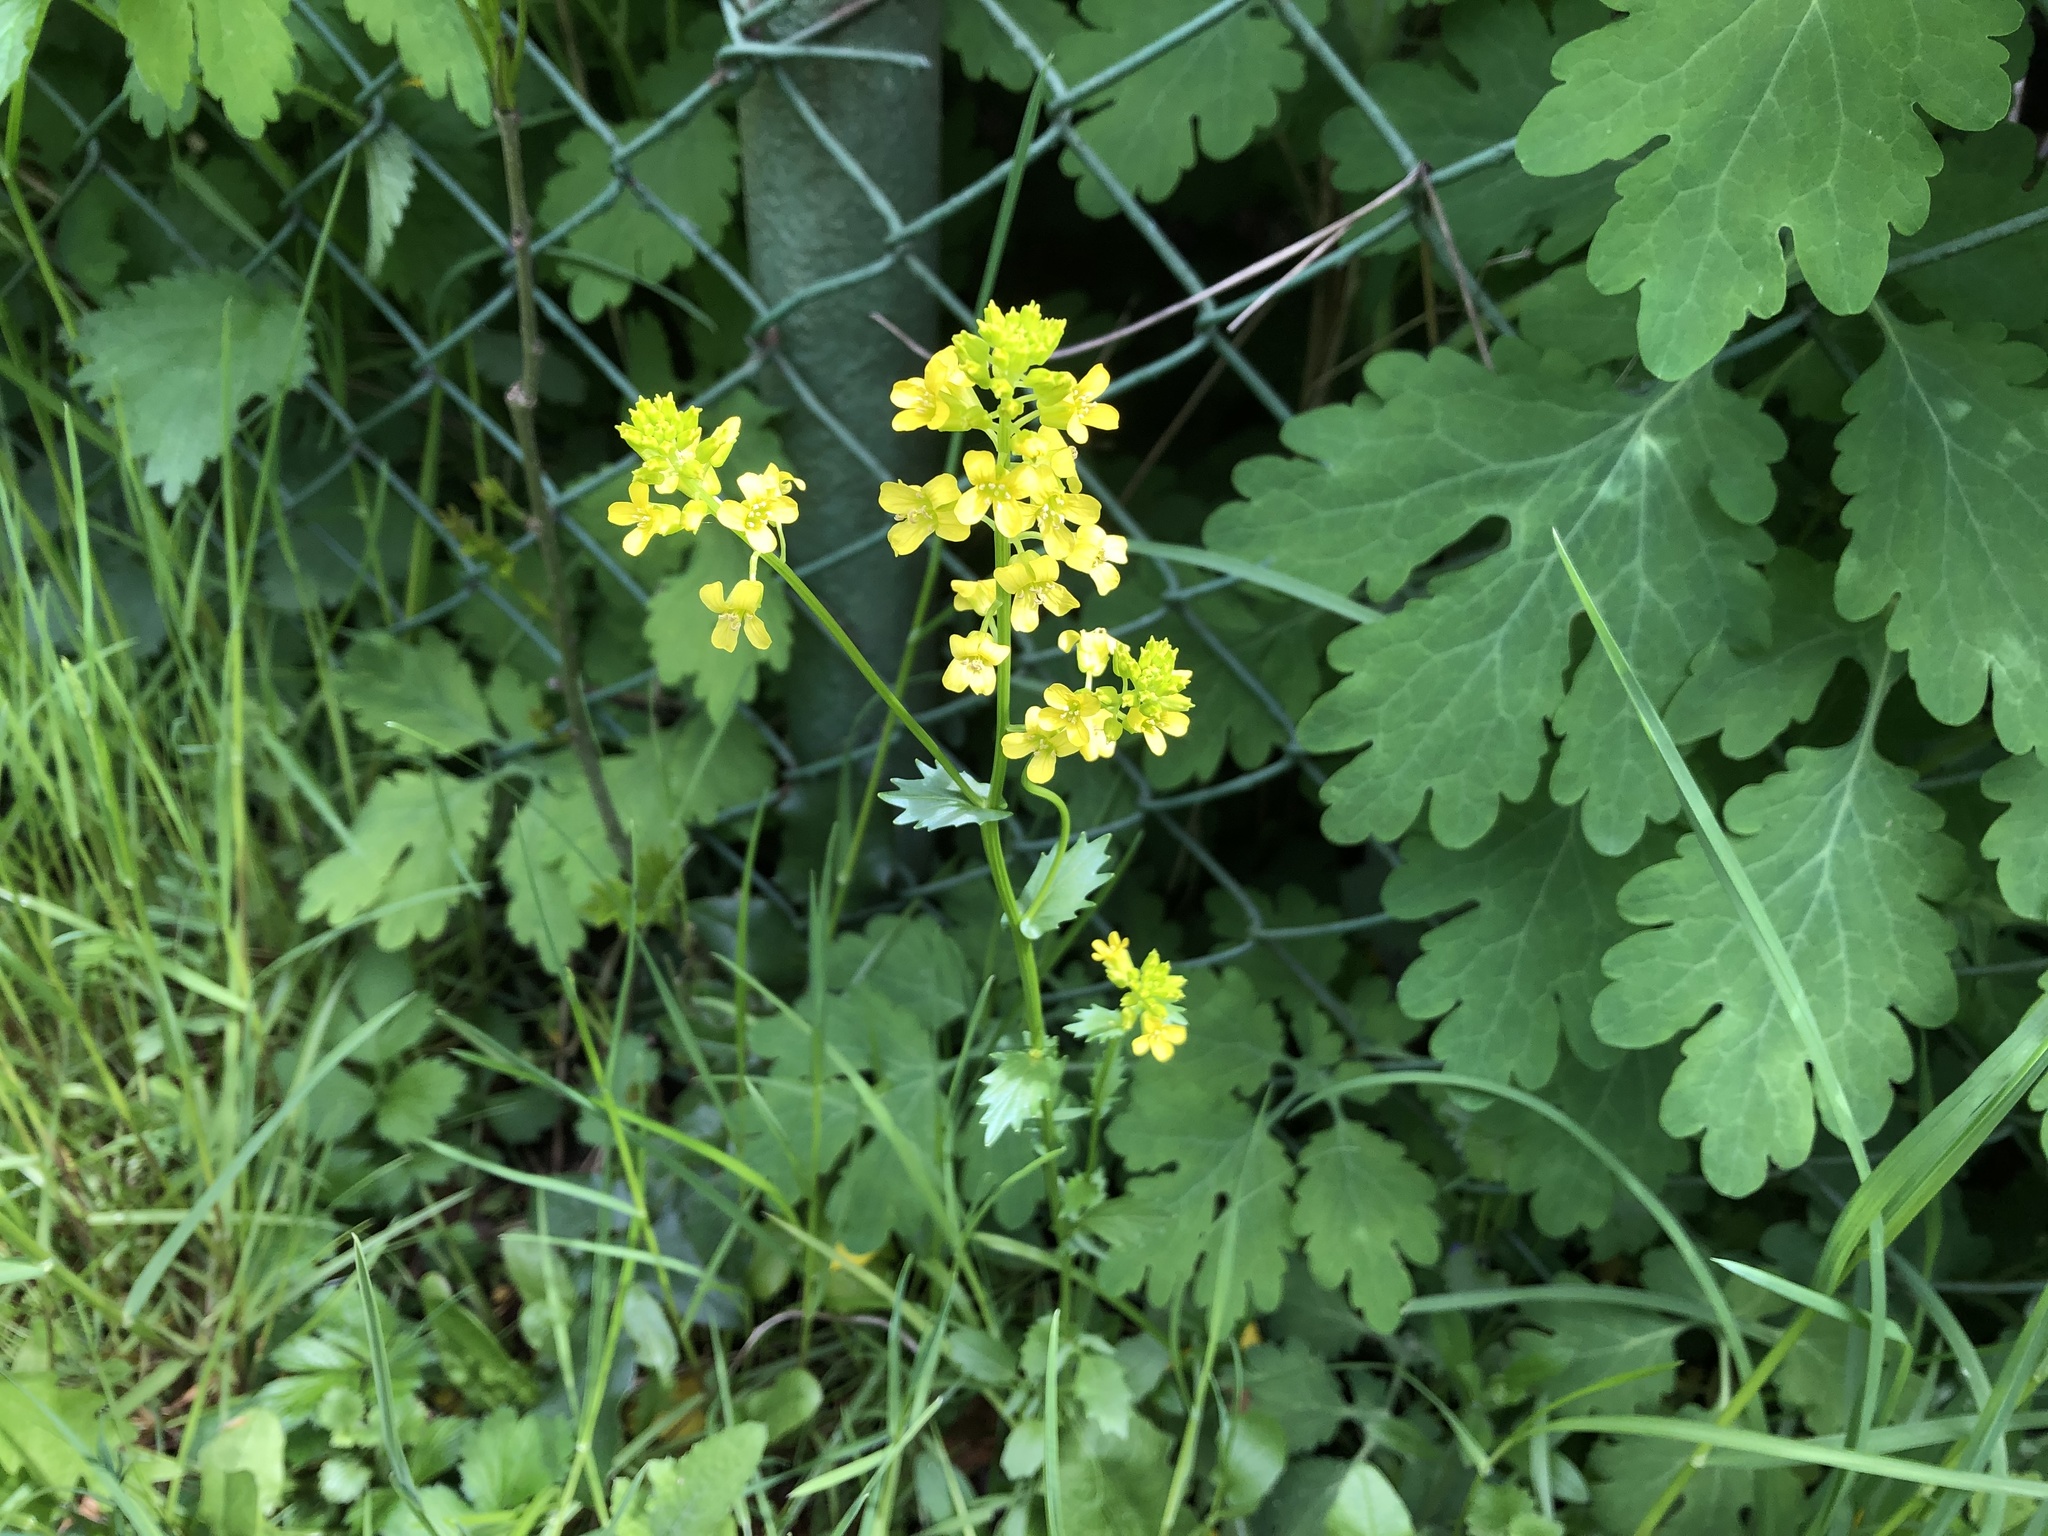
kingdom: Plantae
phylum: Tracheophyta
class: Magnoliopsida
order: Brassicales
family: Brassicaceae
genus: Barbarea
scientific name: Barbarea vulgaris
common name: Cressy-greens
